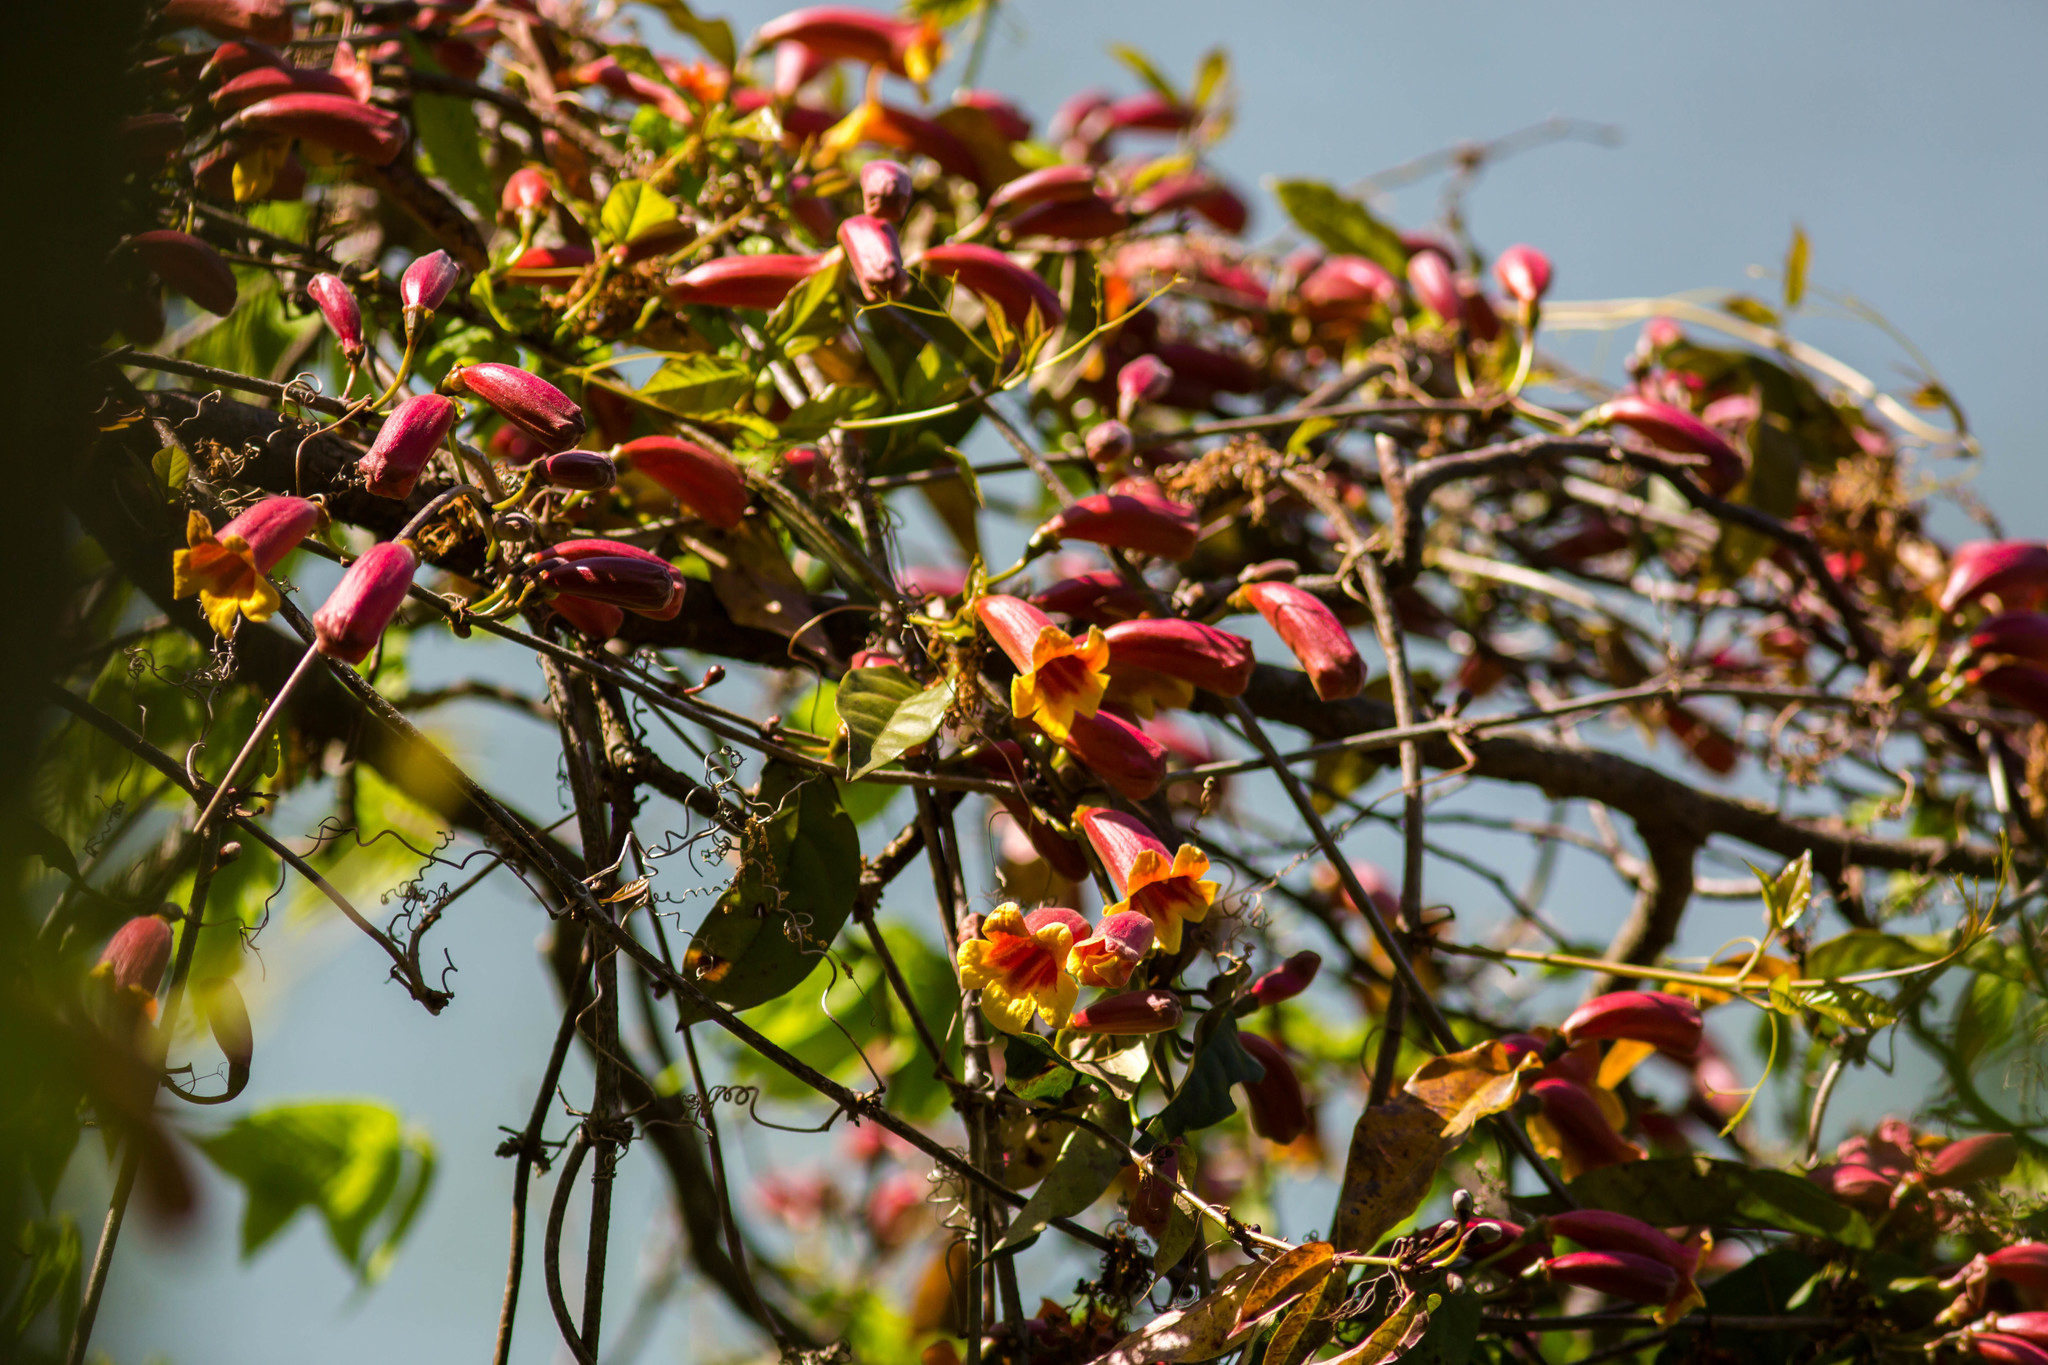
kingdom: Plantae
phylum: Tracheophyta
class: Magnoliopsida
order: Lamiales
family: Bignoniaceae
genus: Bignonia
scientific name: Bignonia capreolata
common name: Crossvine
